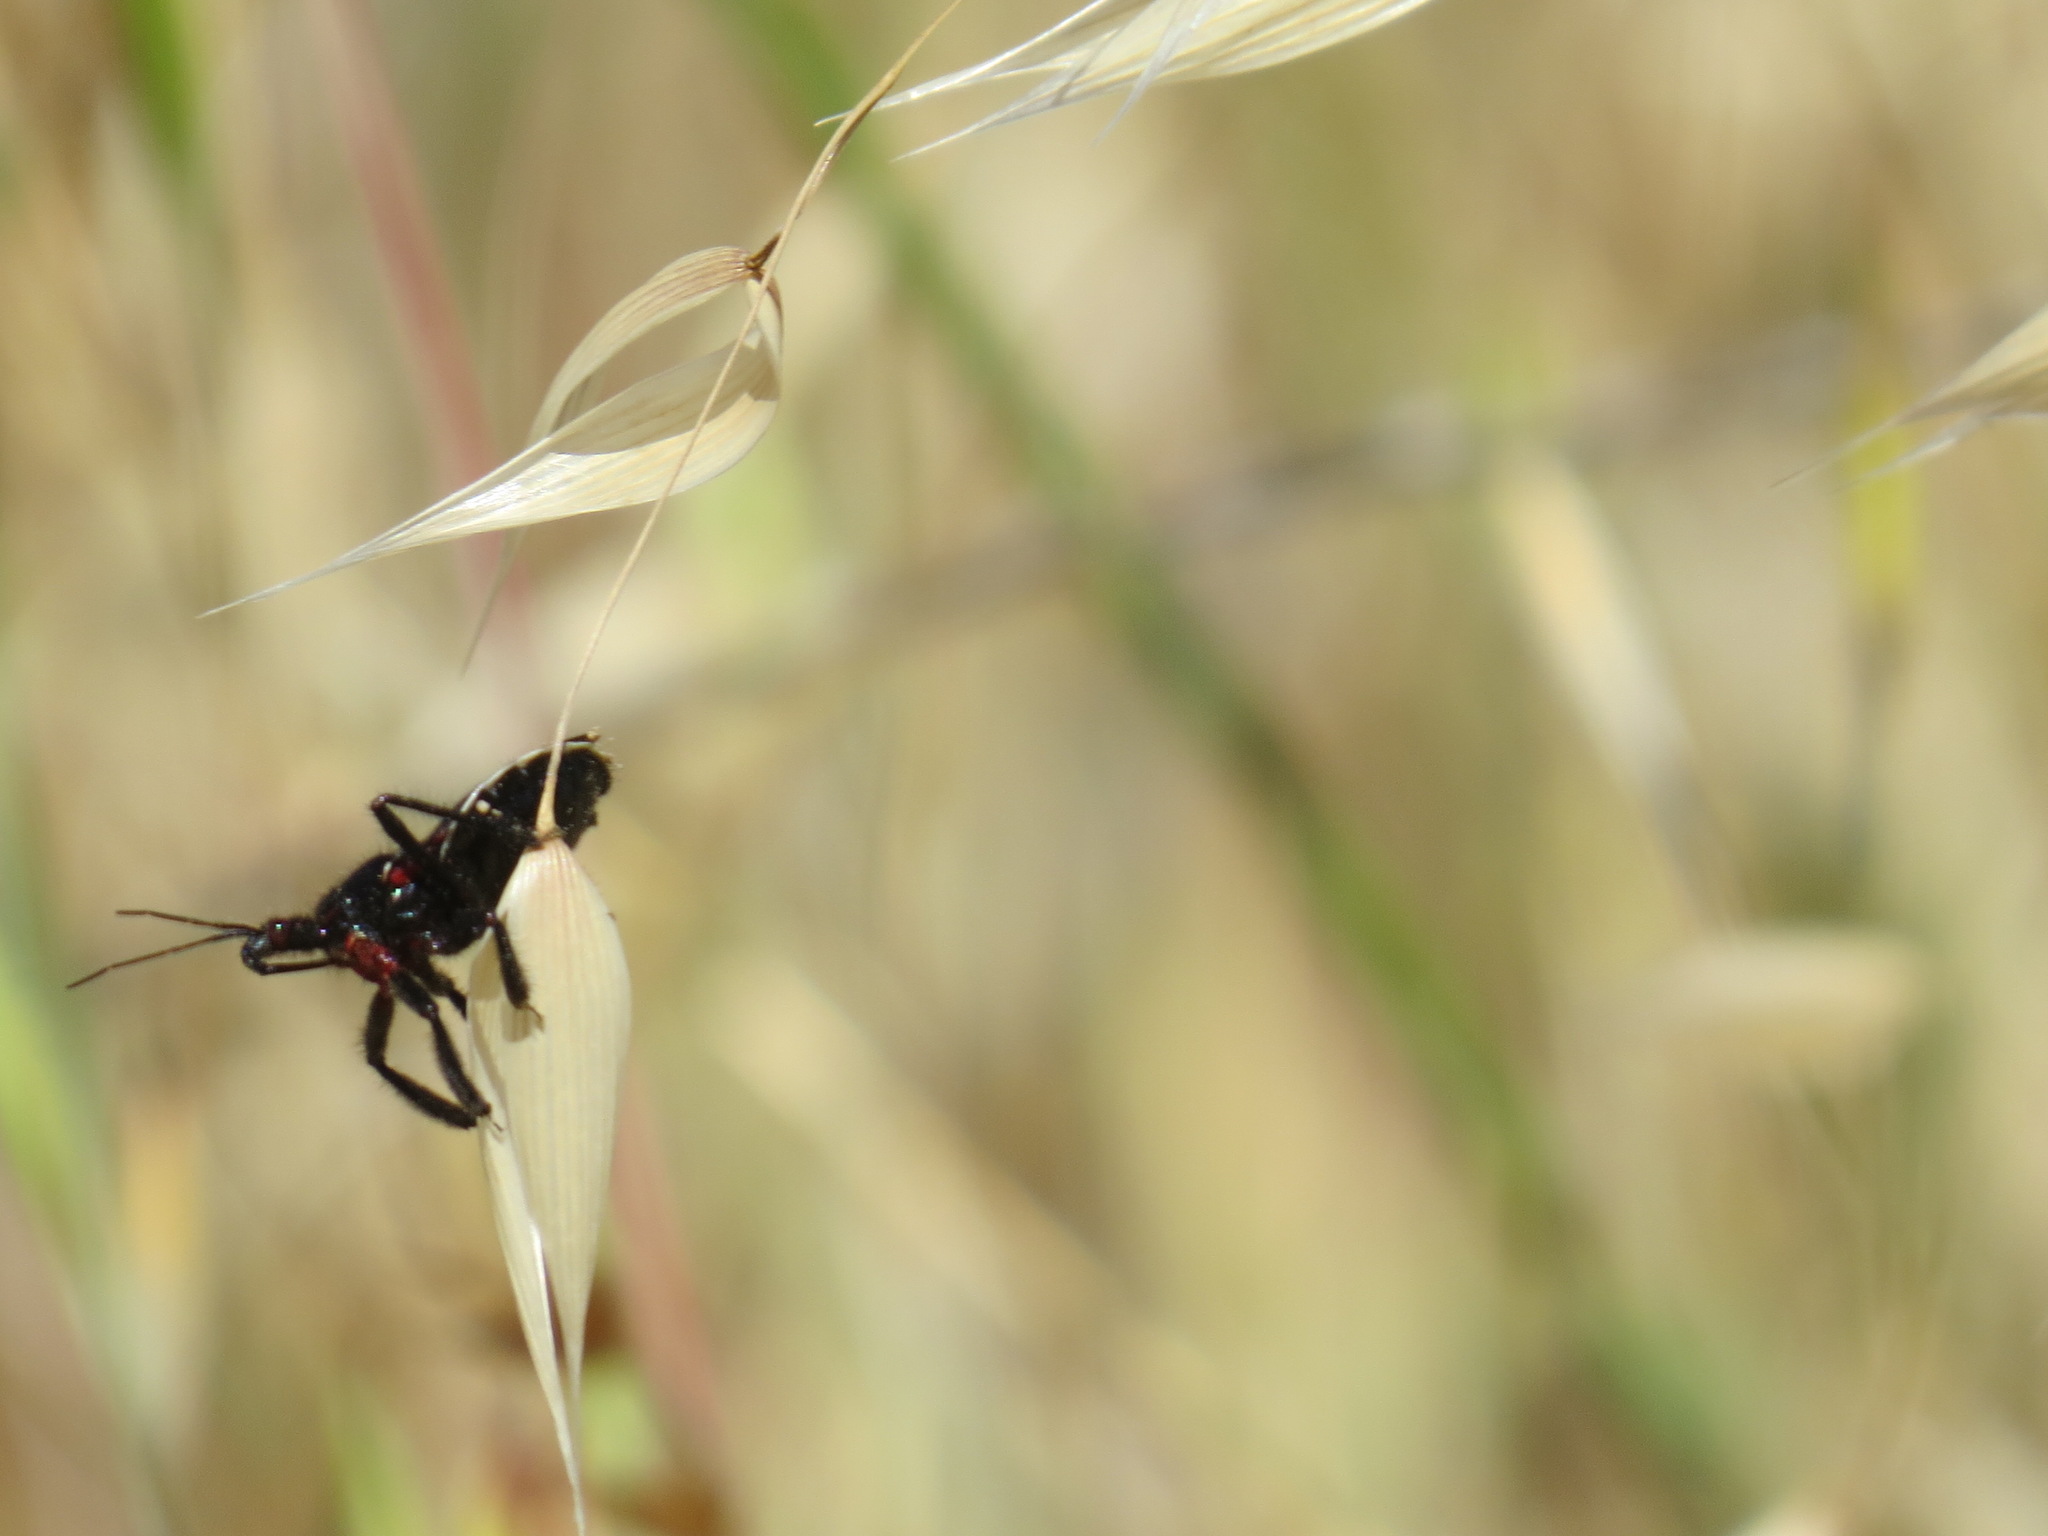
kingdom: Animalia
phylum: Arthropoda
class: Insecta
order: Hemiptera
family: Reduviidae
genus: Apiomerus
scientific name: Apiomerus californicus
